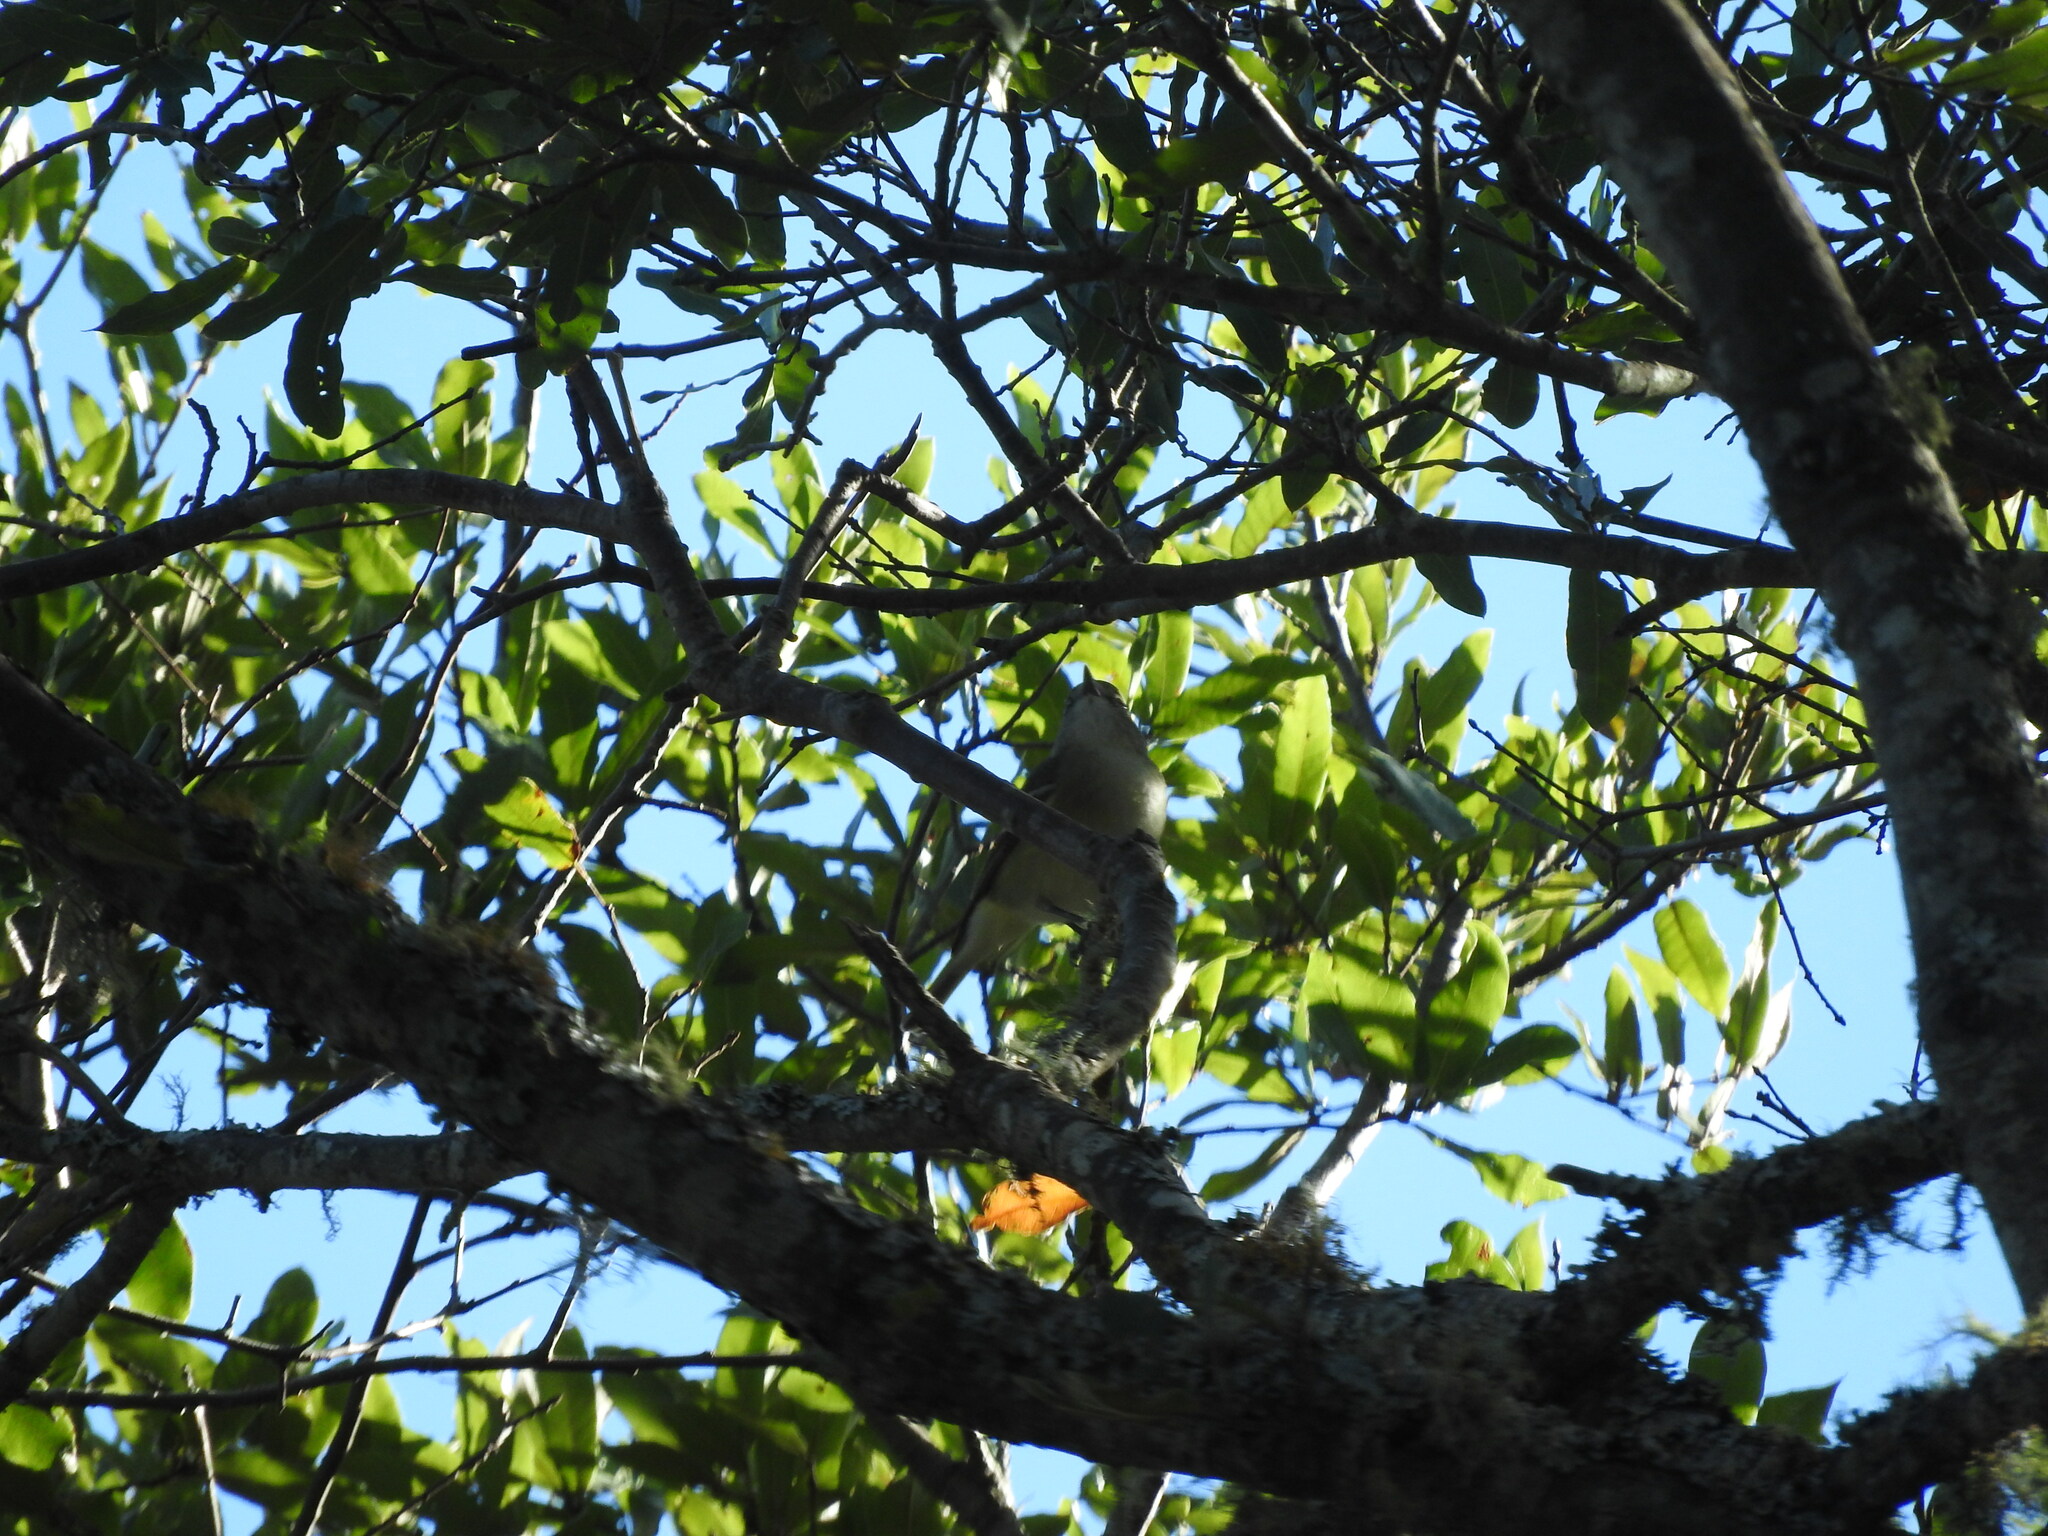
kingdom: Animalia
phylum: Chordata
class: Aves
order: Passeriformes
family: Vireonidae
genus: Vireo
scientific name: Vireo plumbeus
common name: Plumbeous vireo
